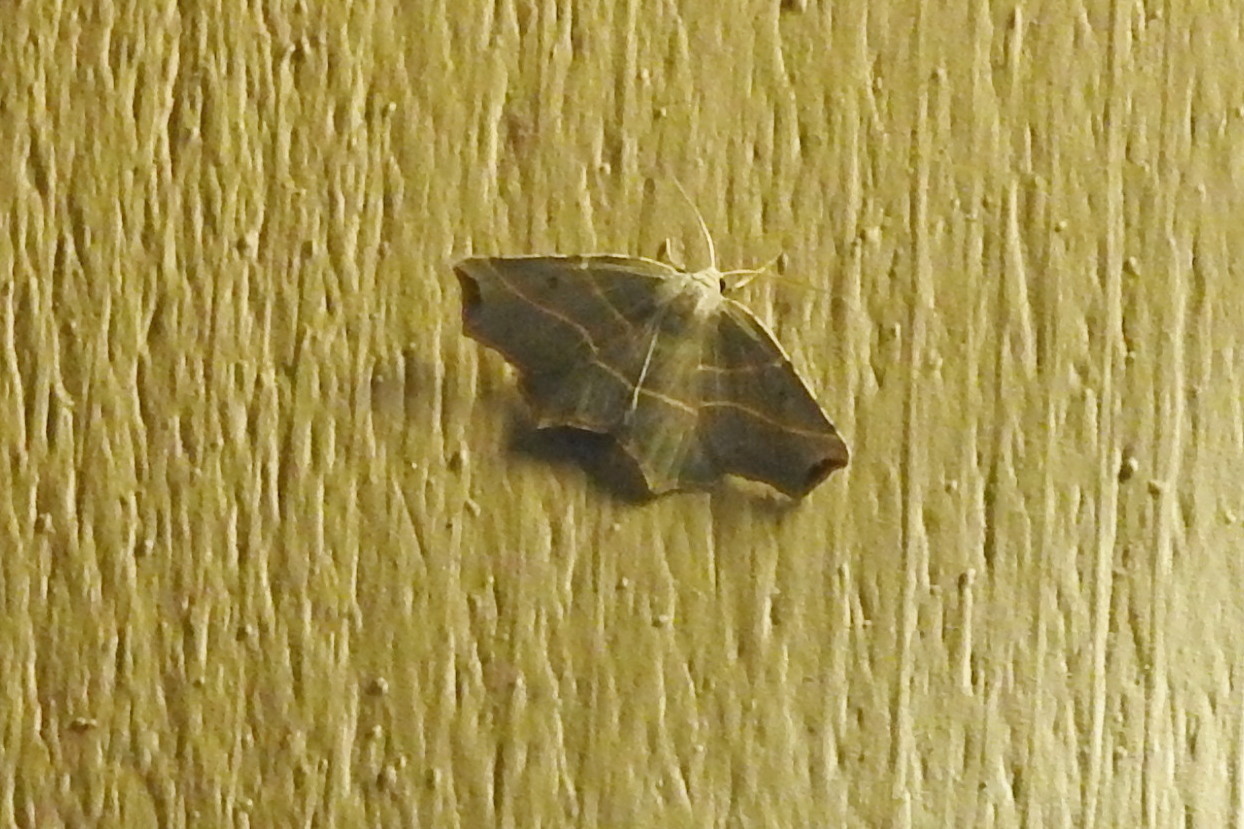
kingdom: Animalia
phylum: Arthropoda
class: Insecta
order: Lepidoptera
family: Geometridae
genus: Metanema
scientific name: Metanema inatomaria
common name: Pale metanema
